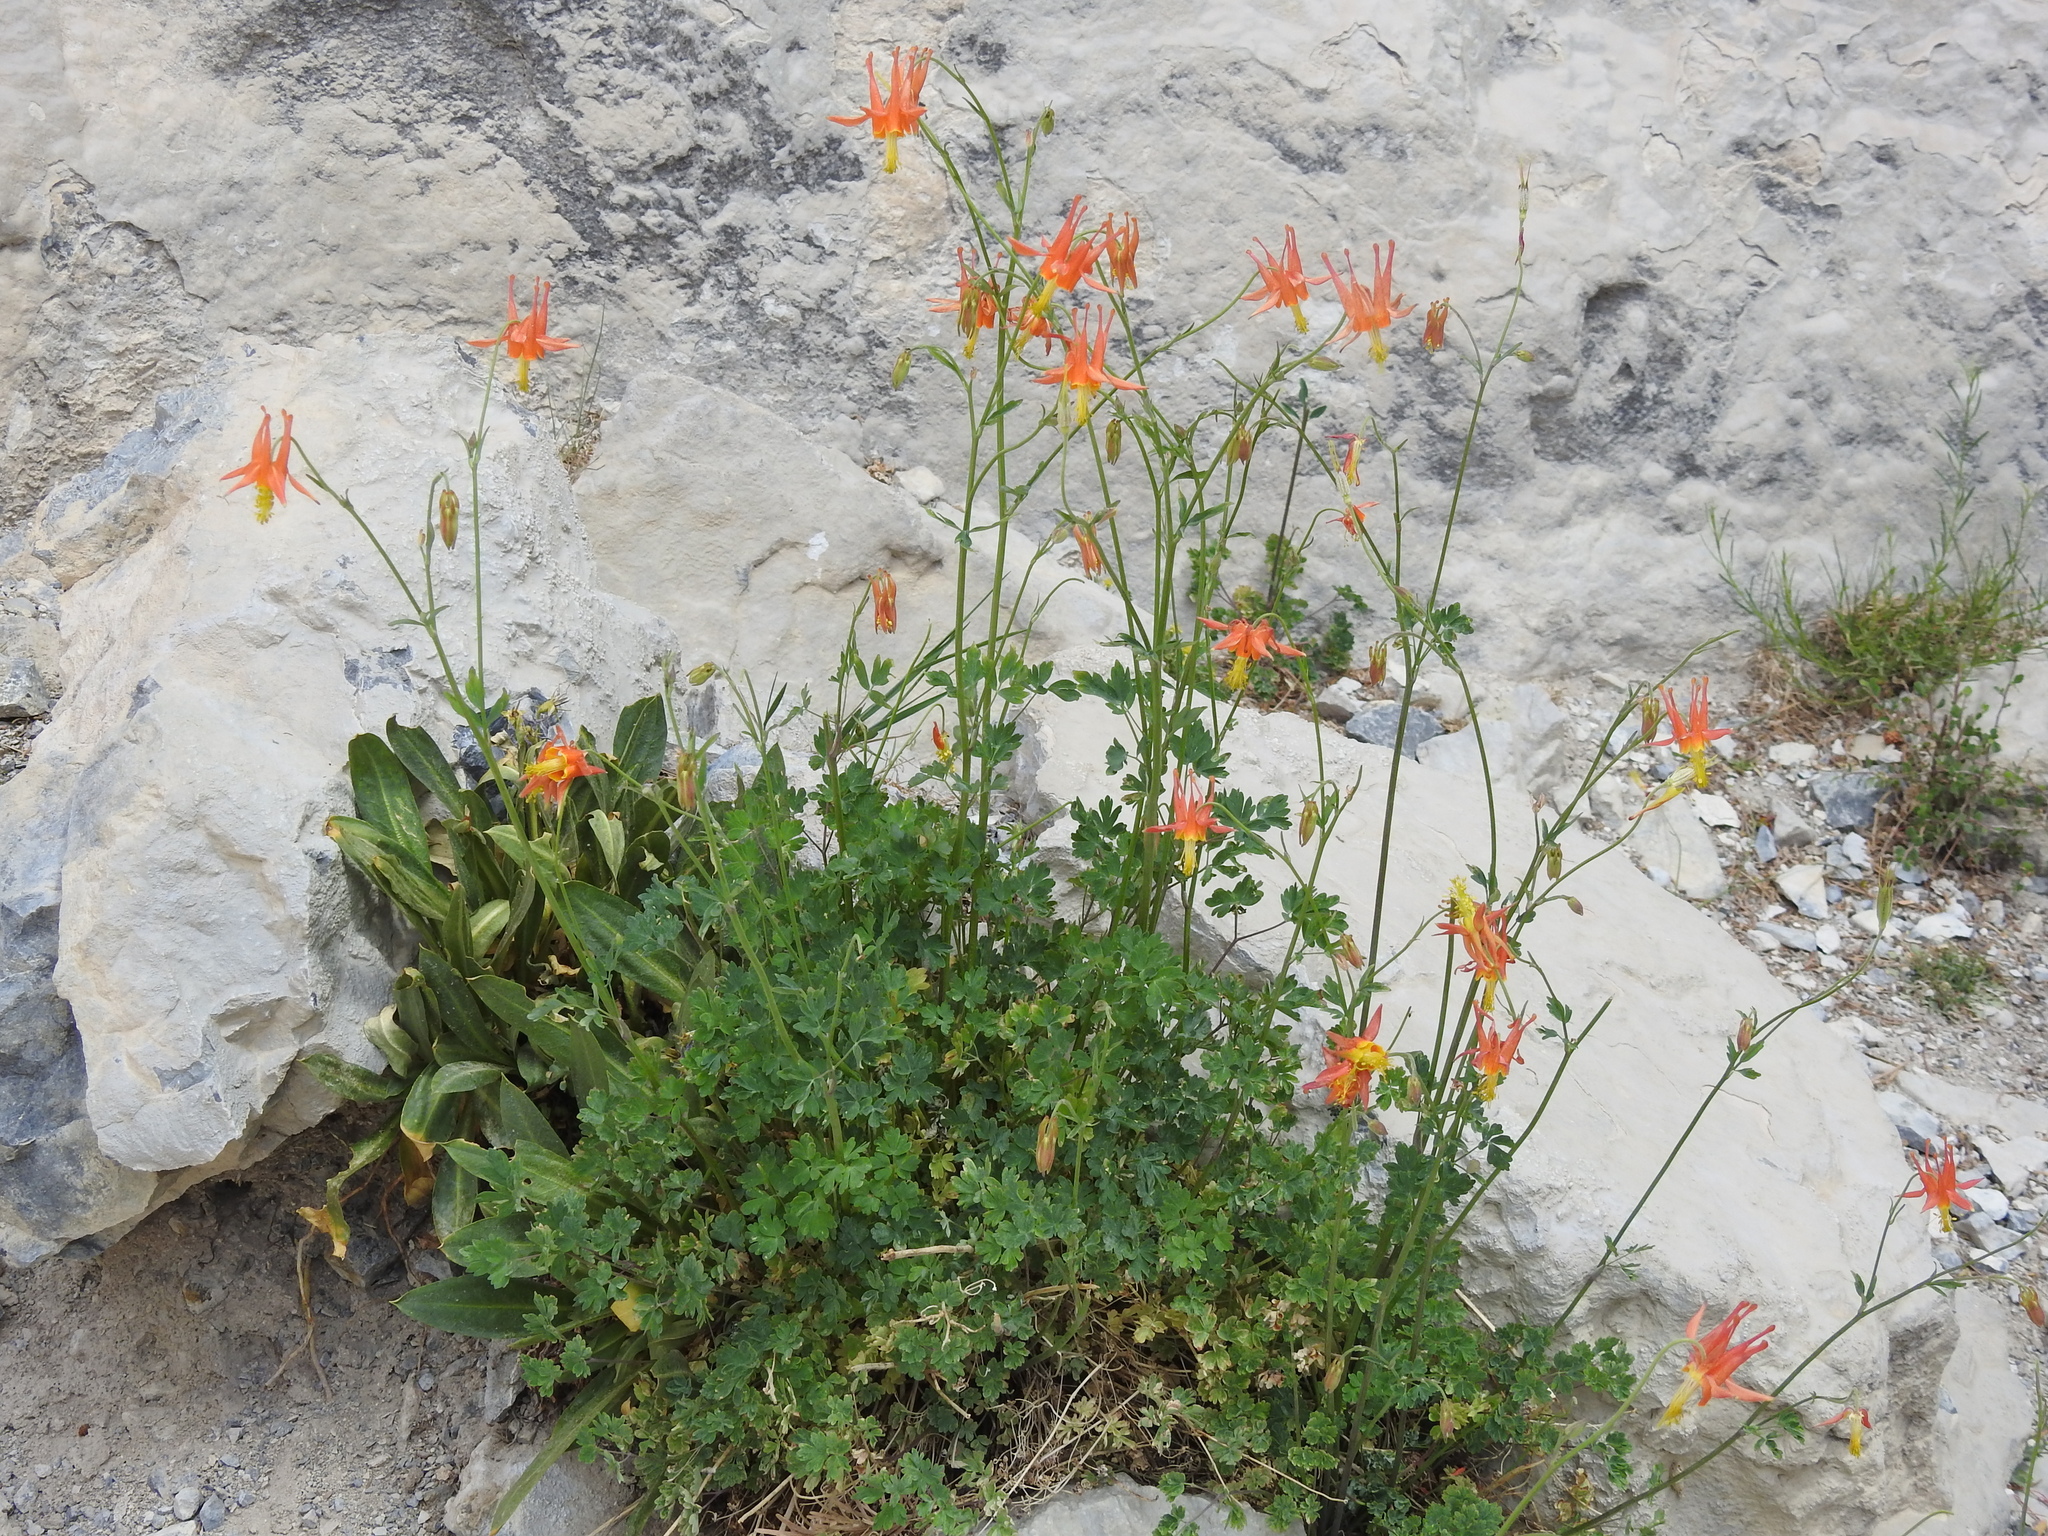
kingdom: Plantae
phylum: Tracheophyta
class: Magnoliopsida
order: Ranunculales
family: Ranunculaceae
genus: Aquilegia
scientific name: Aquilegia formosa
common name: Sitka columbine
